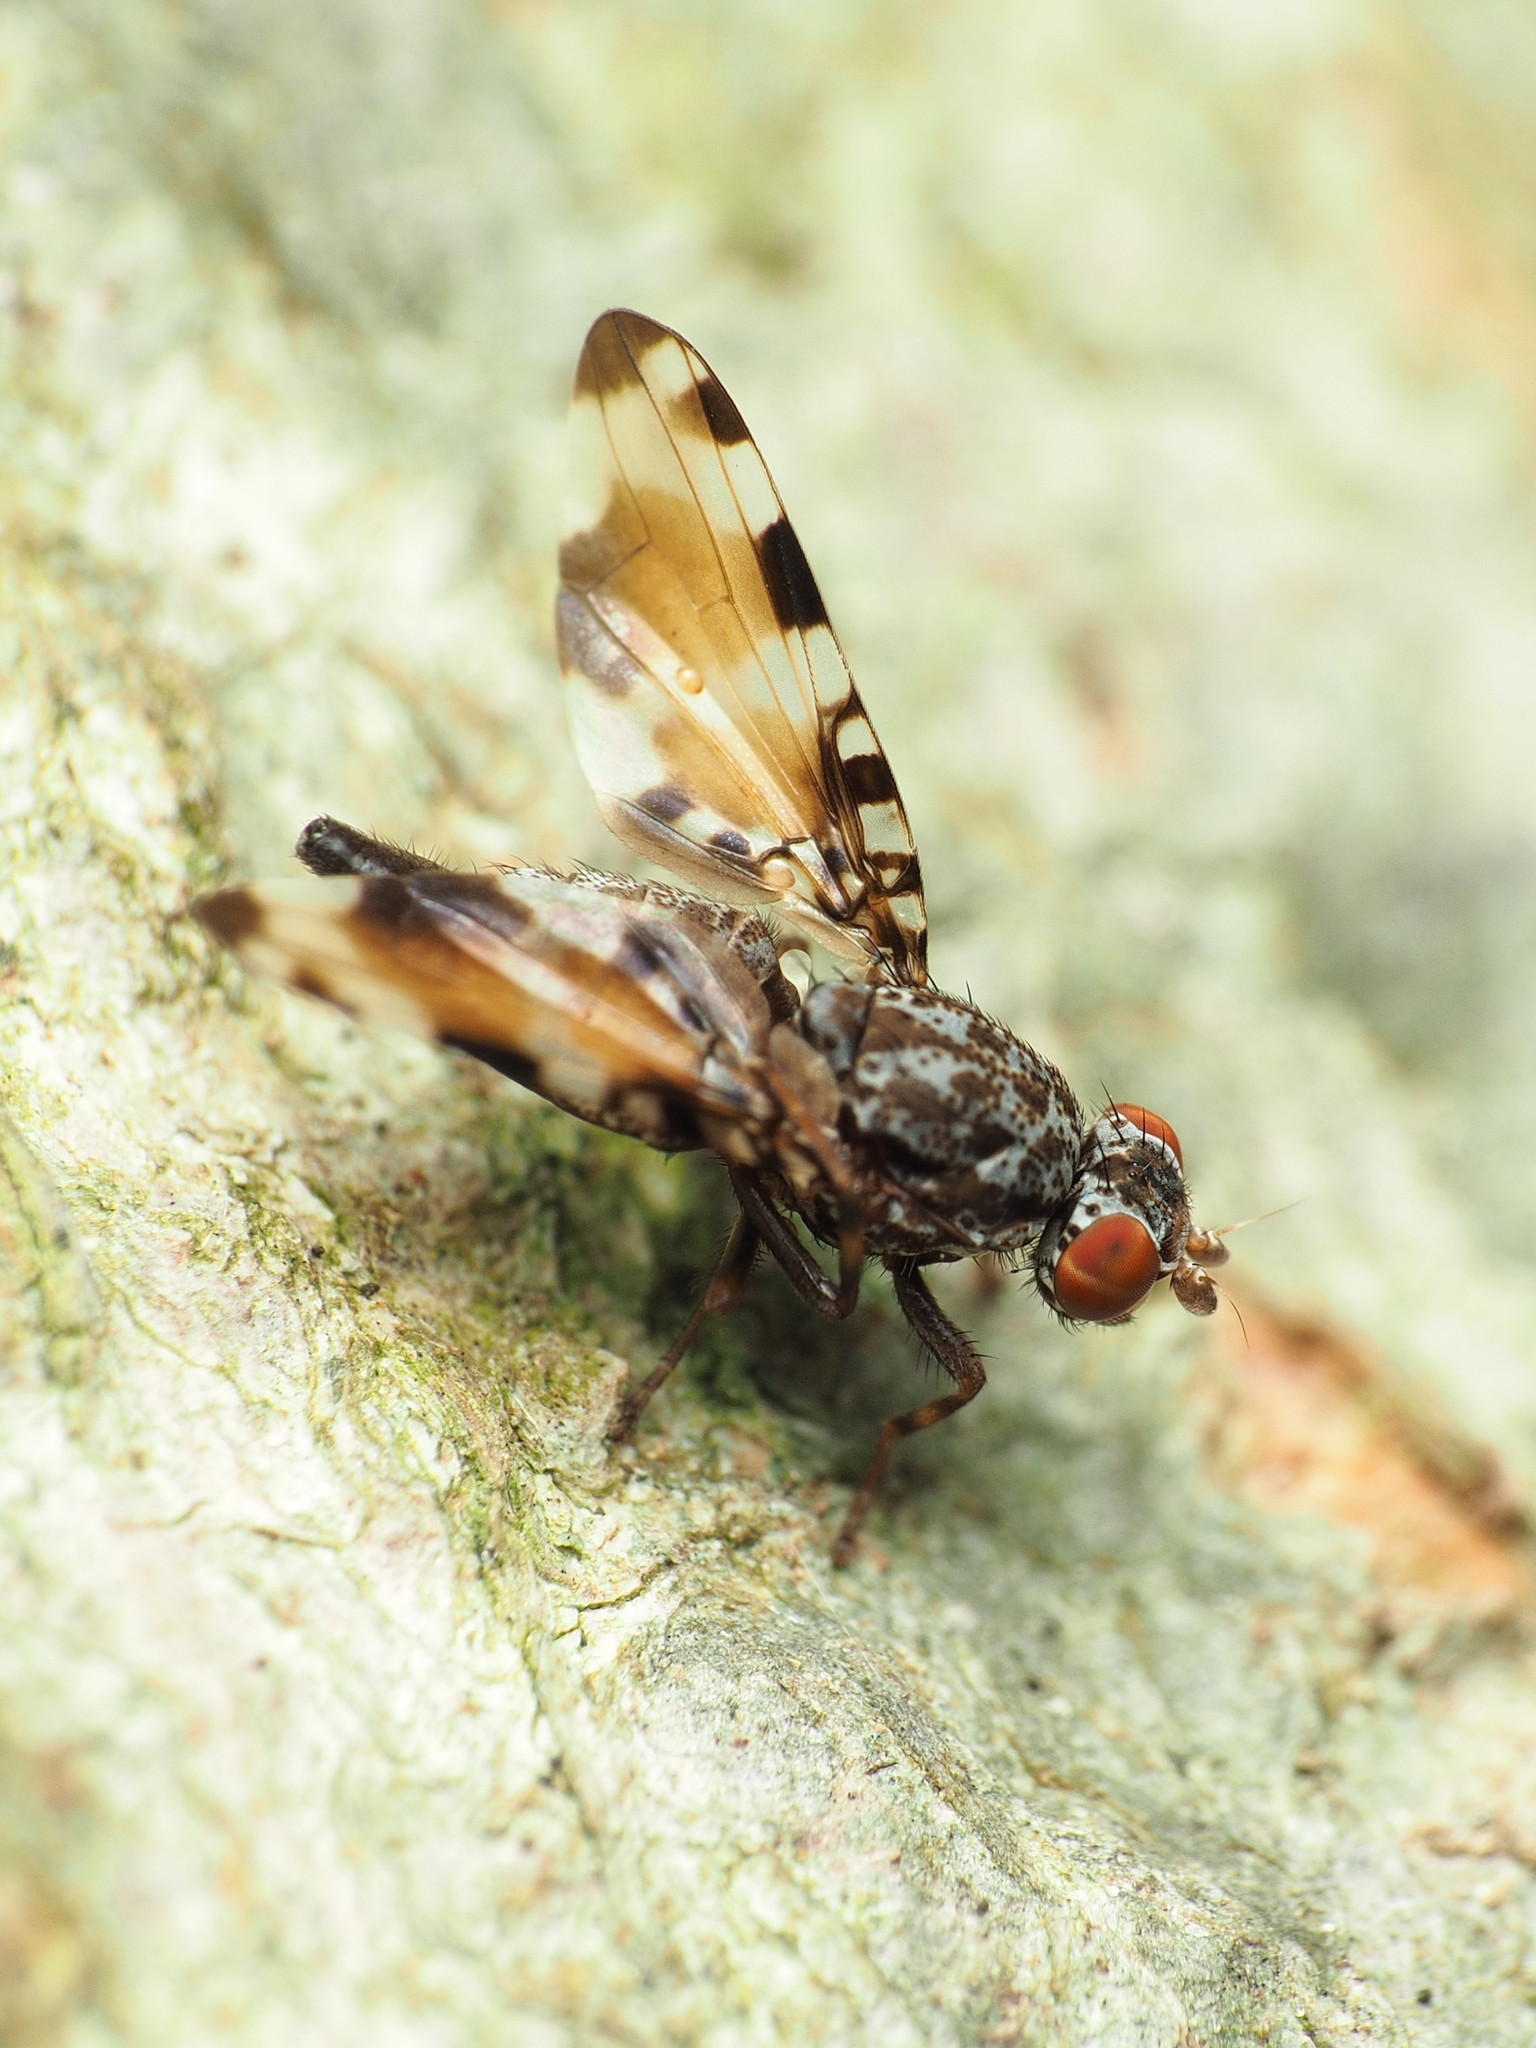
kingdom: Animalia
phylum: Arthropoda
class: Insecta
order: Diptera
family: Ulidiidae
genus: Pseudotephritis
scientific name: Pseudotephritis vau
